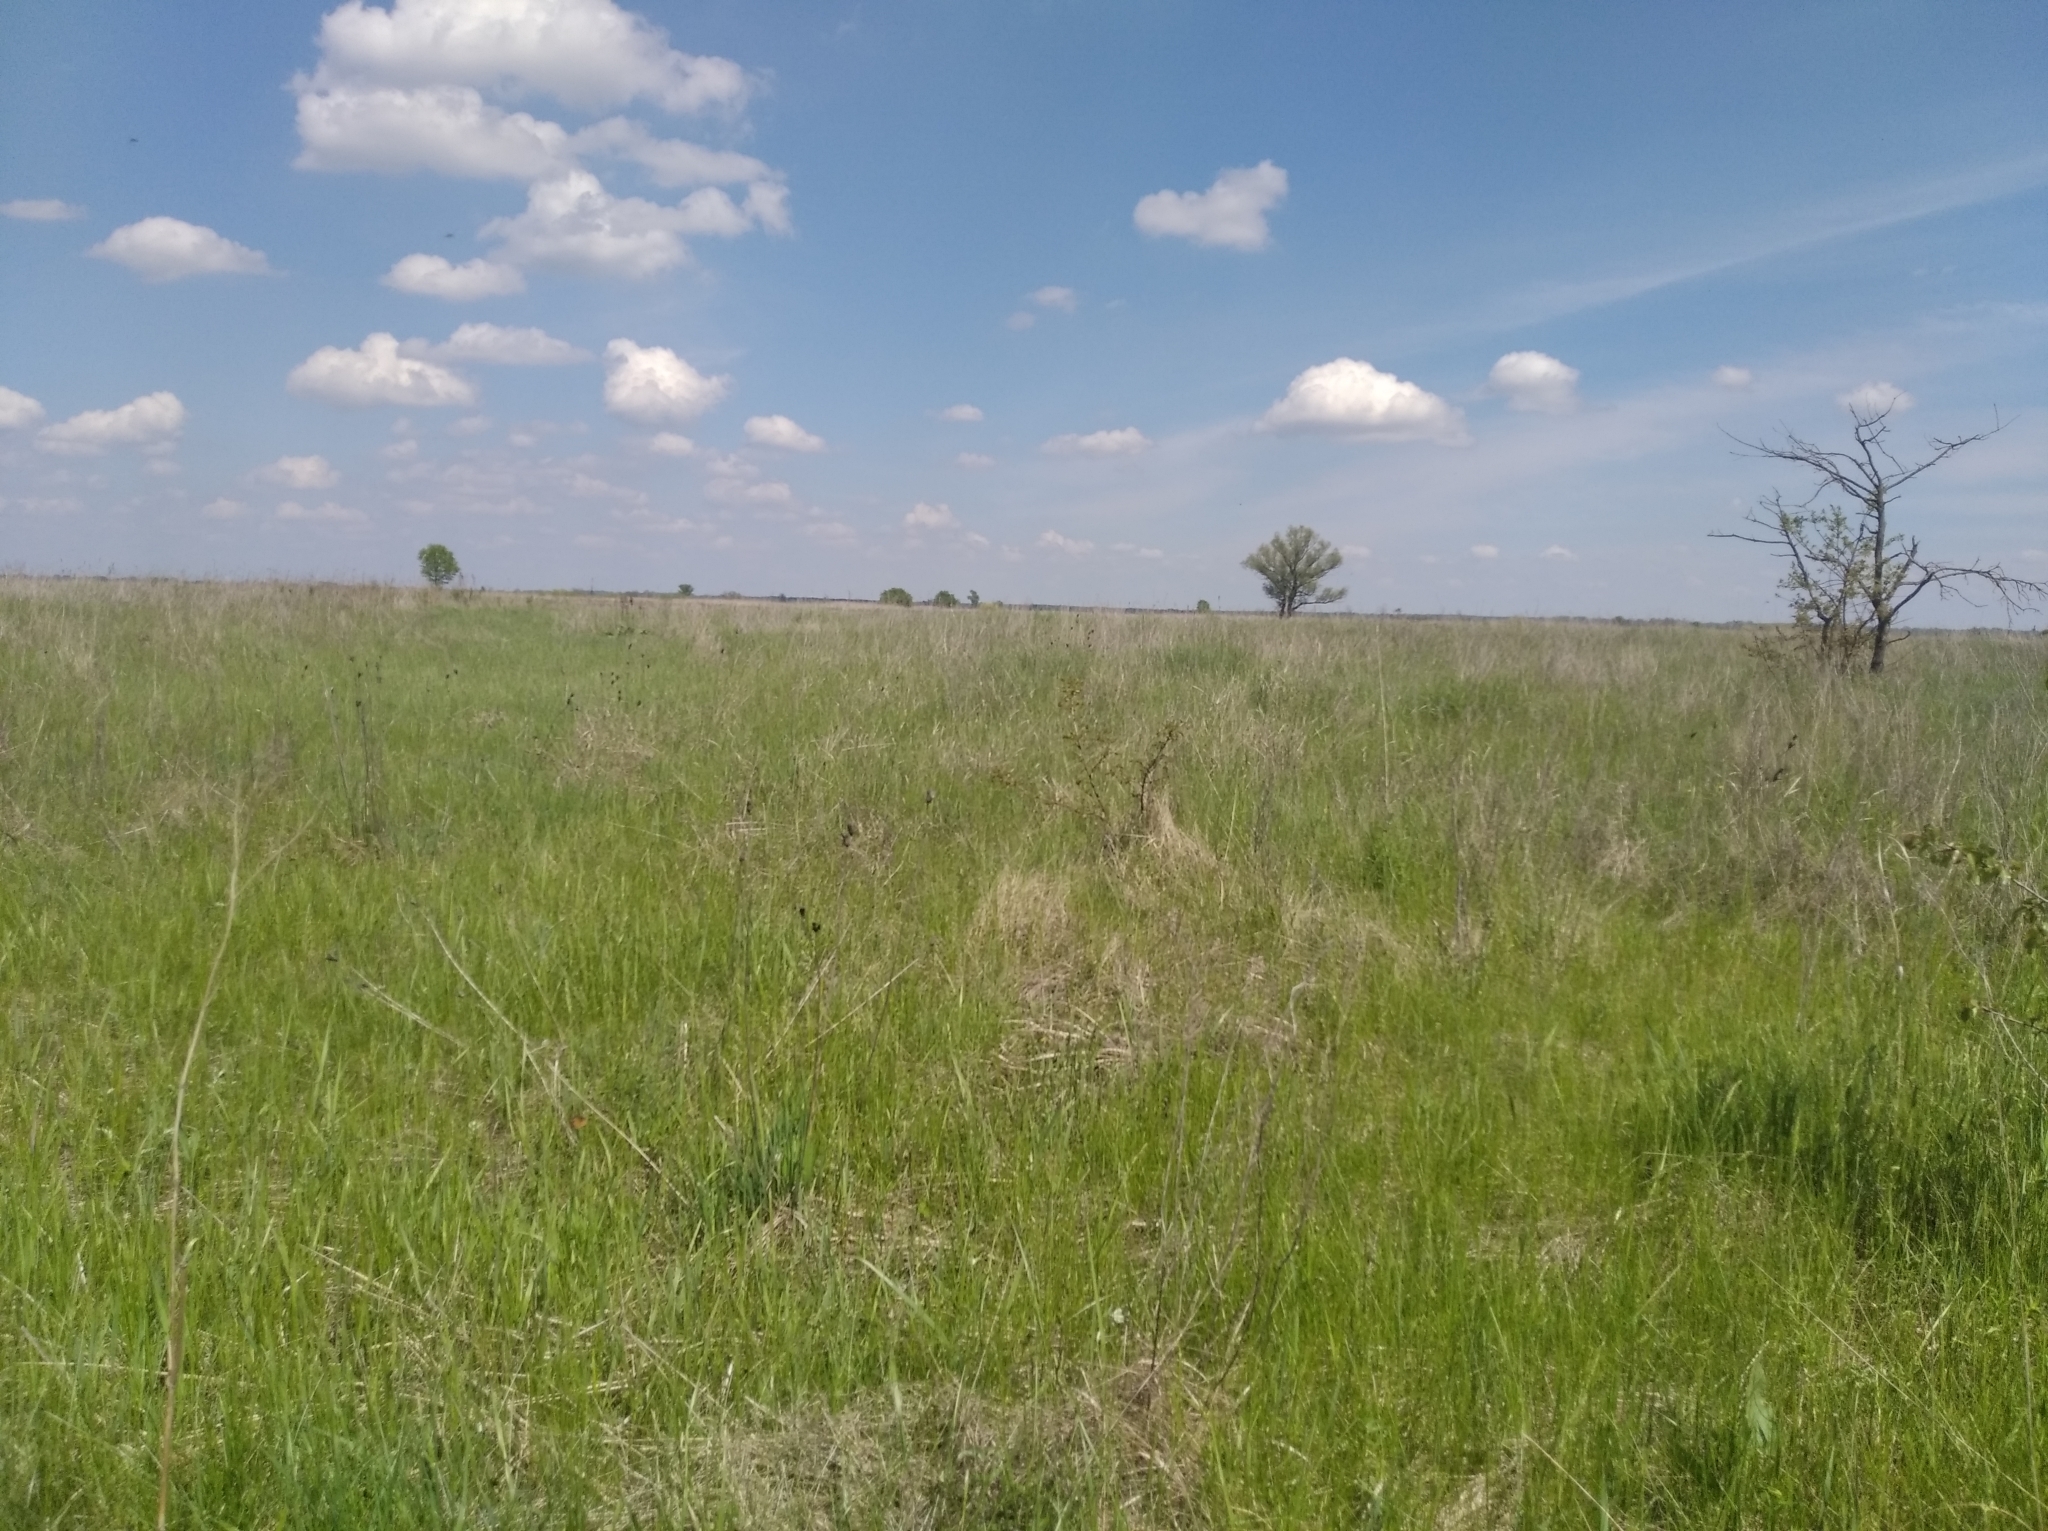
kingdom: Plantae
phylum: Tracheophyta
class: Liliopsida
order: Asparagales
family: Iridaceae
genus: Iris
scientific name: Iris sibirica
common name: Siberian iris
